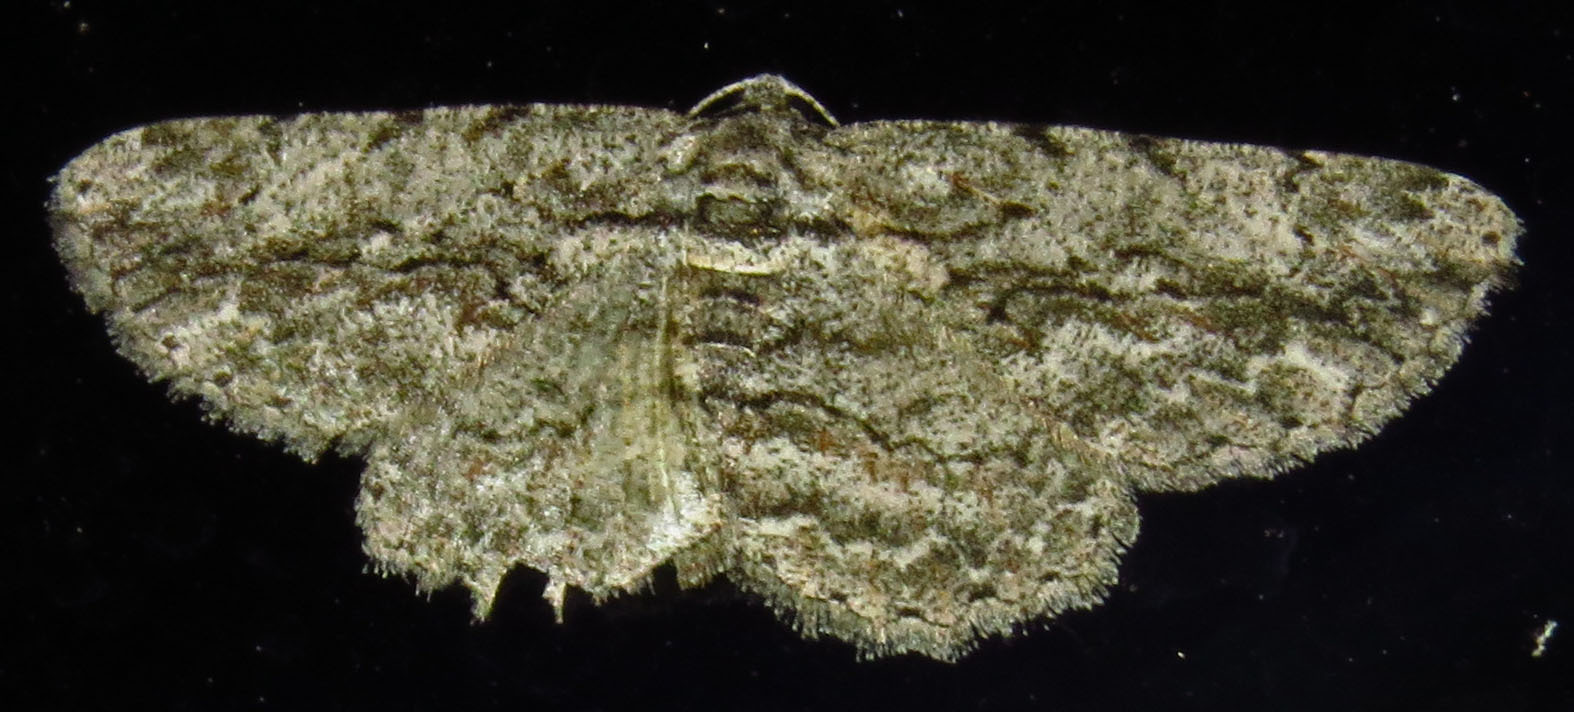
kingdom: Animalia
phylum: Arthropoda
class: Insecta
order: Lepidoptera
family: Geometridae
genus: Anavitrinella
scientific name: Anavitrinella pampinaria
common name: Common gray
